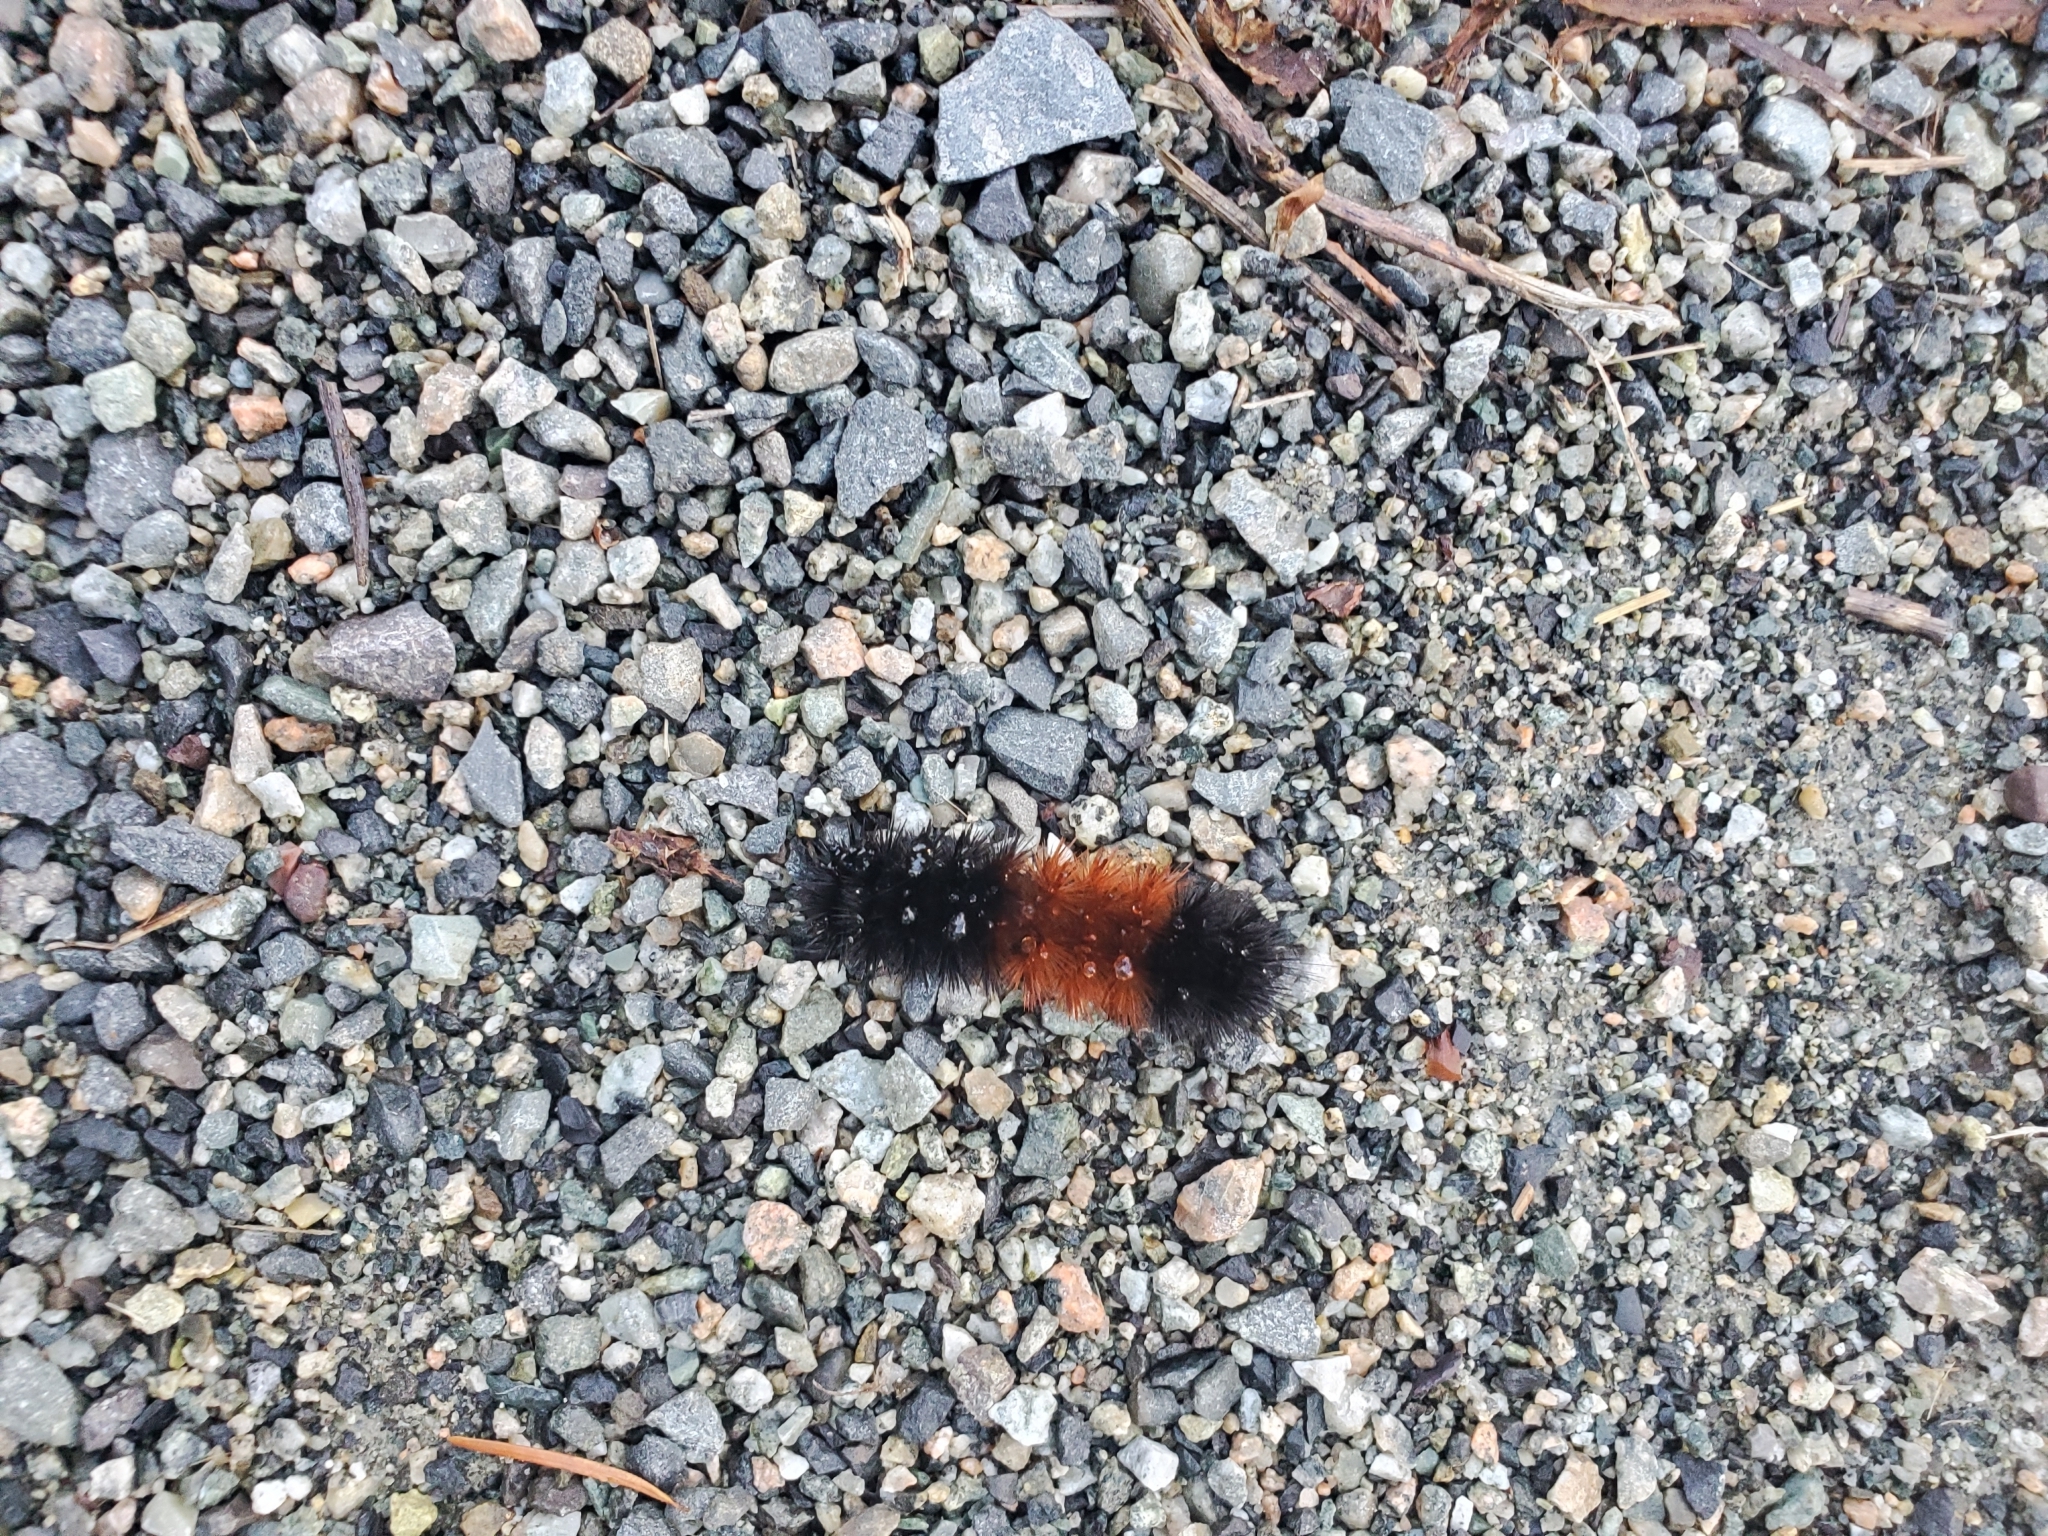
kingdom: Animalia
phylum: Arthropoda
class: Insecta
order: Lepidoptera
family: Erebidae
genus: Pyrrharctia
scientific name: Pyrrharctia isabella
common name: Isabella tiger moth
